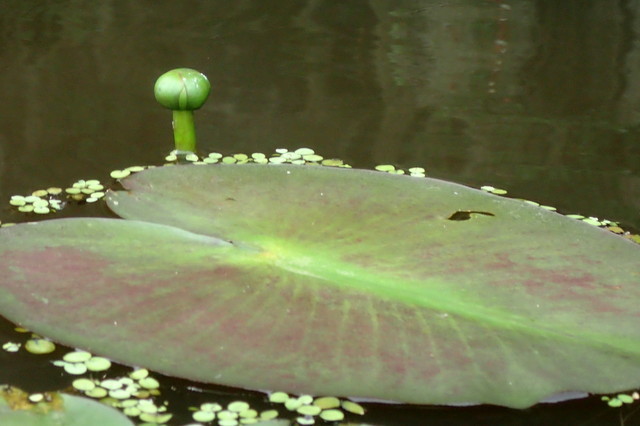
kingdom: Plantae
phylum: Tracheophyta
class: Magnoliopsida
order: Nymphaeales
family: Nymphaeaceae
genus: Nuphar
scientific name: Nuphar advena
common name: Spatter-dock
